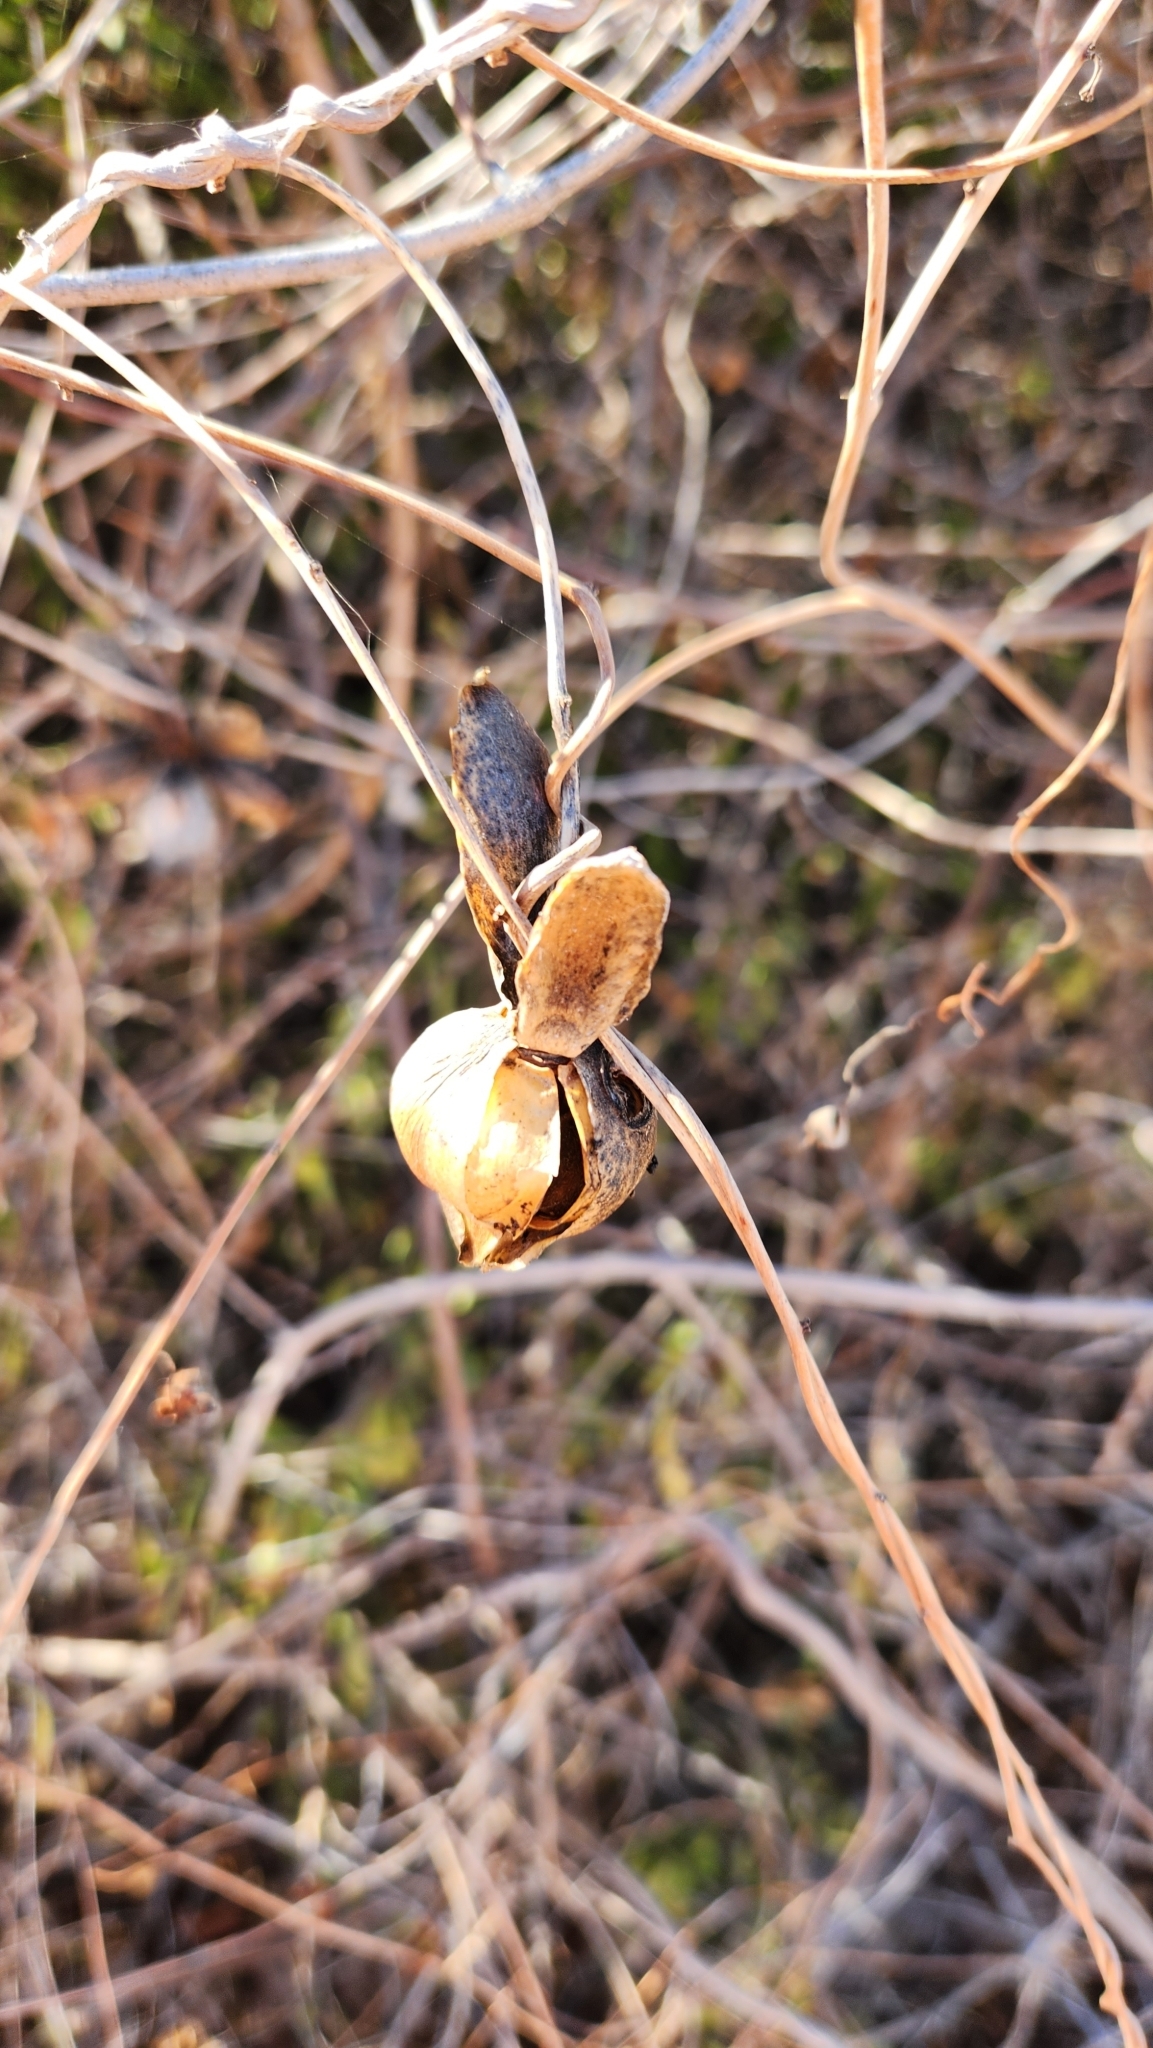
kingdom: Plantae
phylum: Tracheophyta
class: Magnoliopsida
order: Solanales
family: Convolvulaceae
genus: Distimake
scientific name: Distimake aureus
